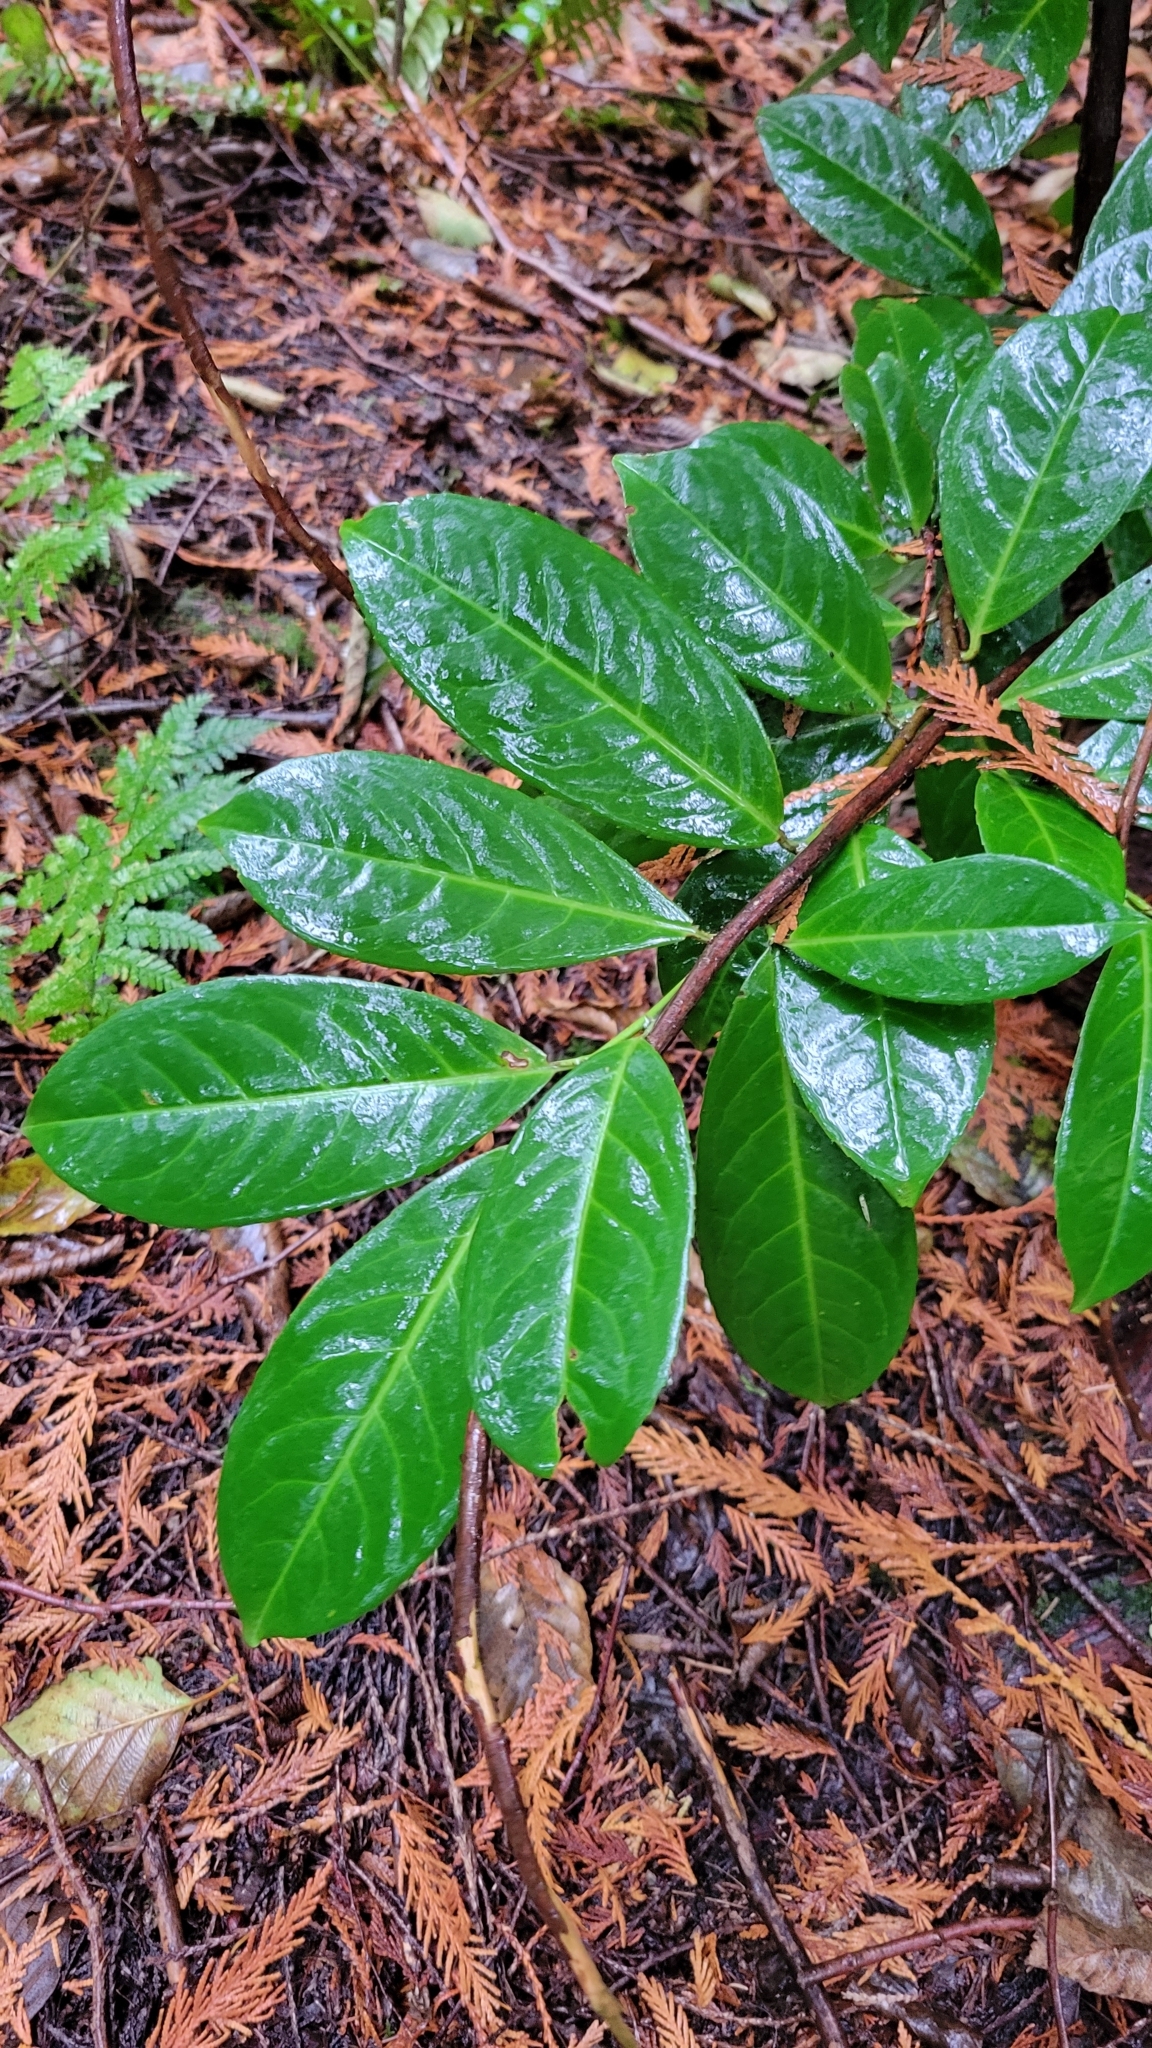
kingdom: Plantae
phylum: Tracheophyta
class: Magnoliopsida
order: Rosales
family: Rosaceae
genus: Prunus
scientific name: Prunus laurocerasus
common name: Cherry laurel
